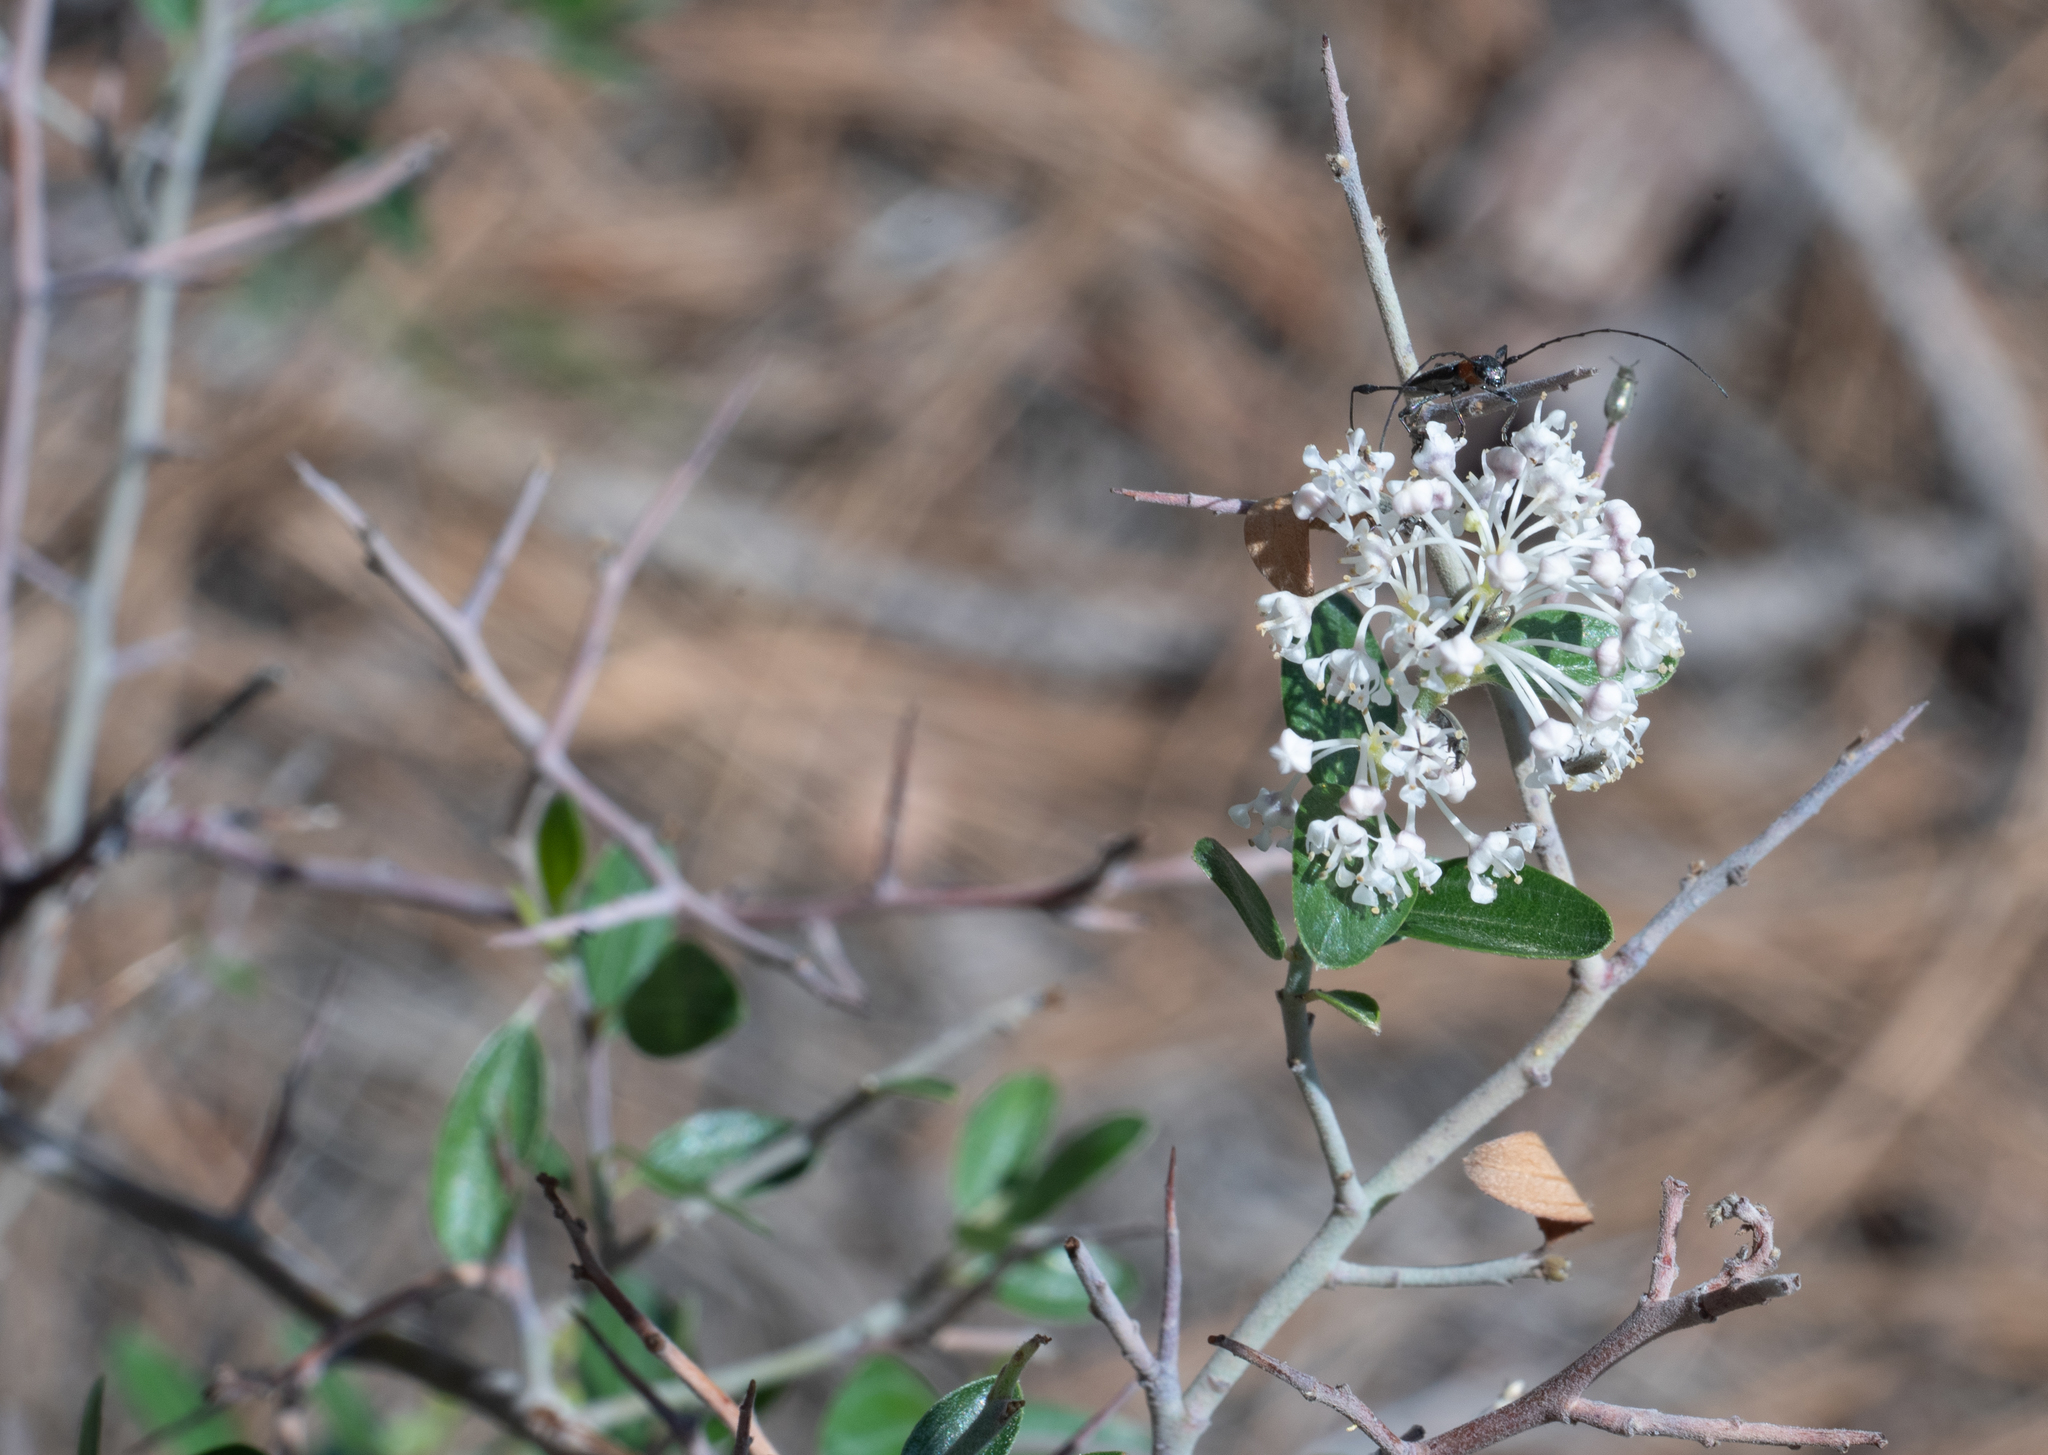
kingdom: Plantae
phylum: Tracheophyta
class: Magnoliopsida
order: Rosales
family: Rhamnaceae
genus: Ceanothus
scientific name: Ceanothus fendleri
